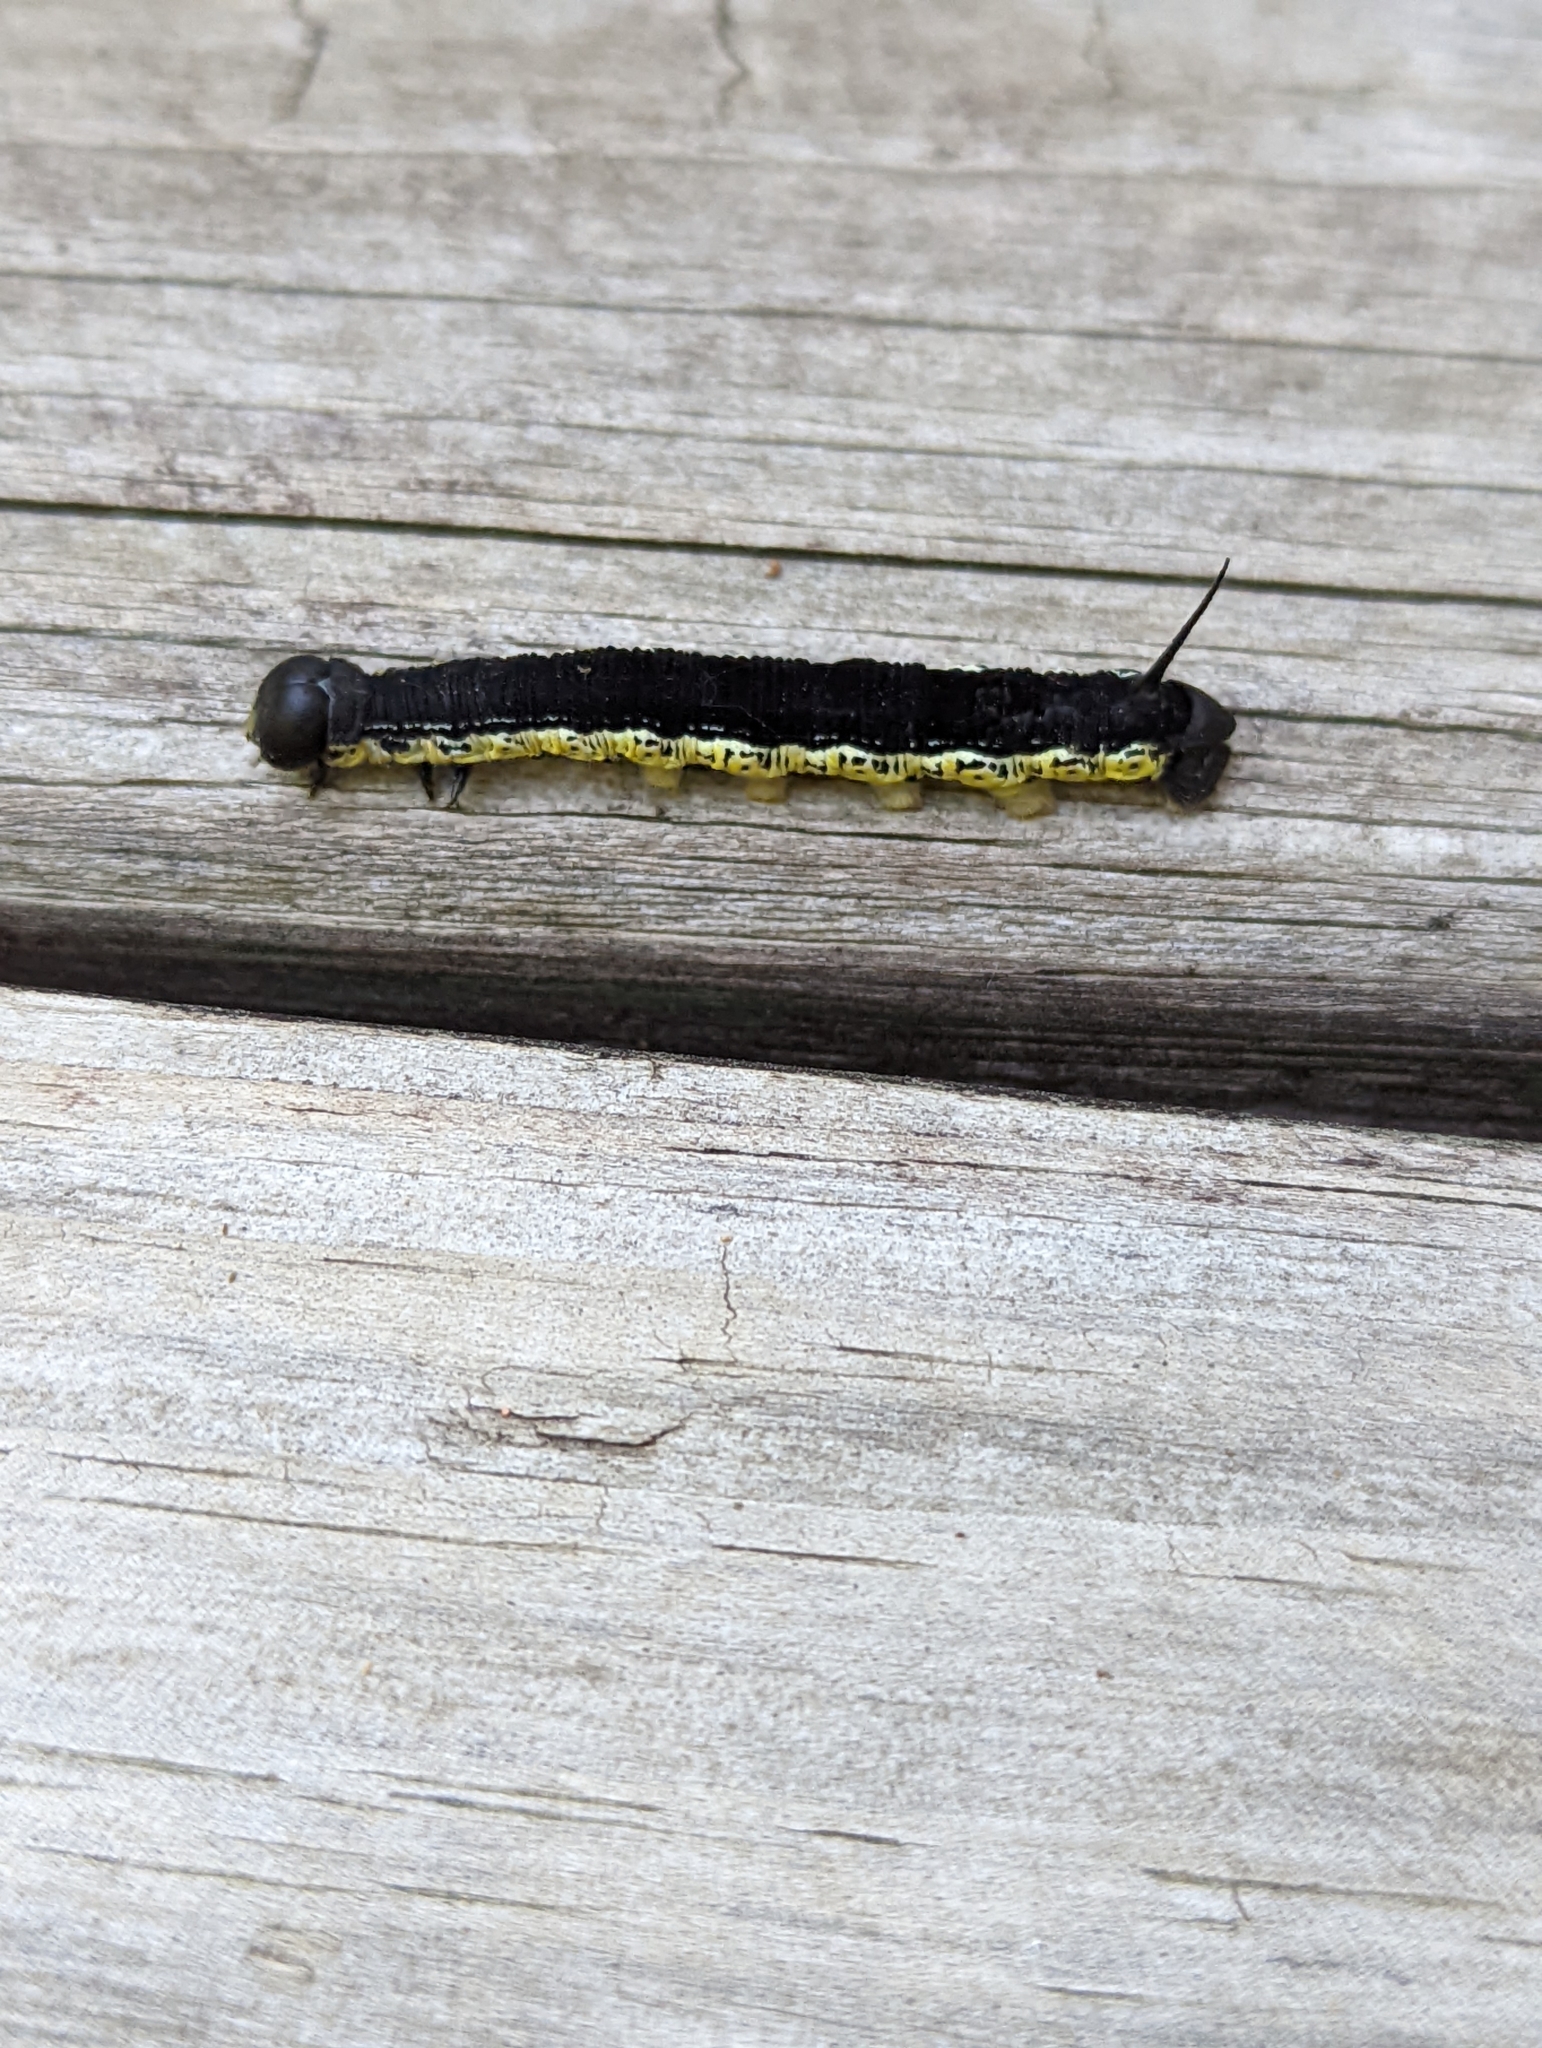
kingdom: Animalia
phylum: Arthropoda
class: Insecta
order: Lepidoptera
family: Sphingidae
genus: Ceratomia
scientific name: Ceratomia catalpae
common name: Catalpa hornworm
